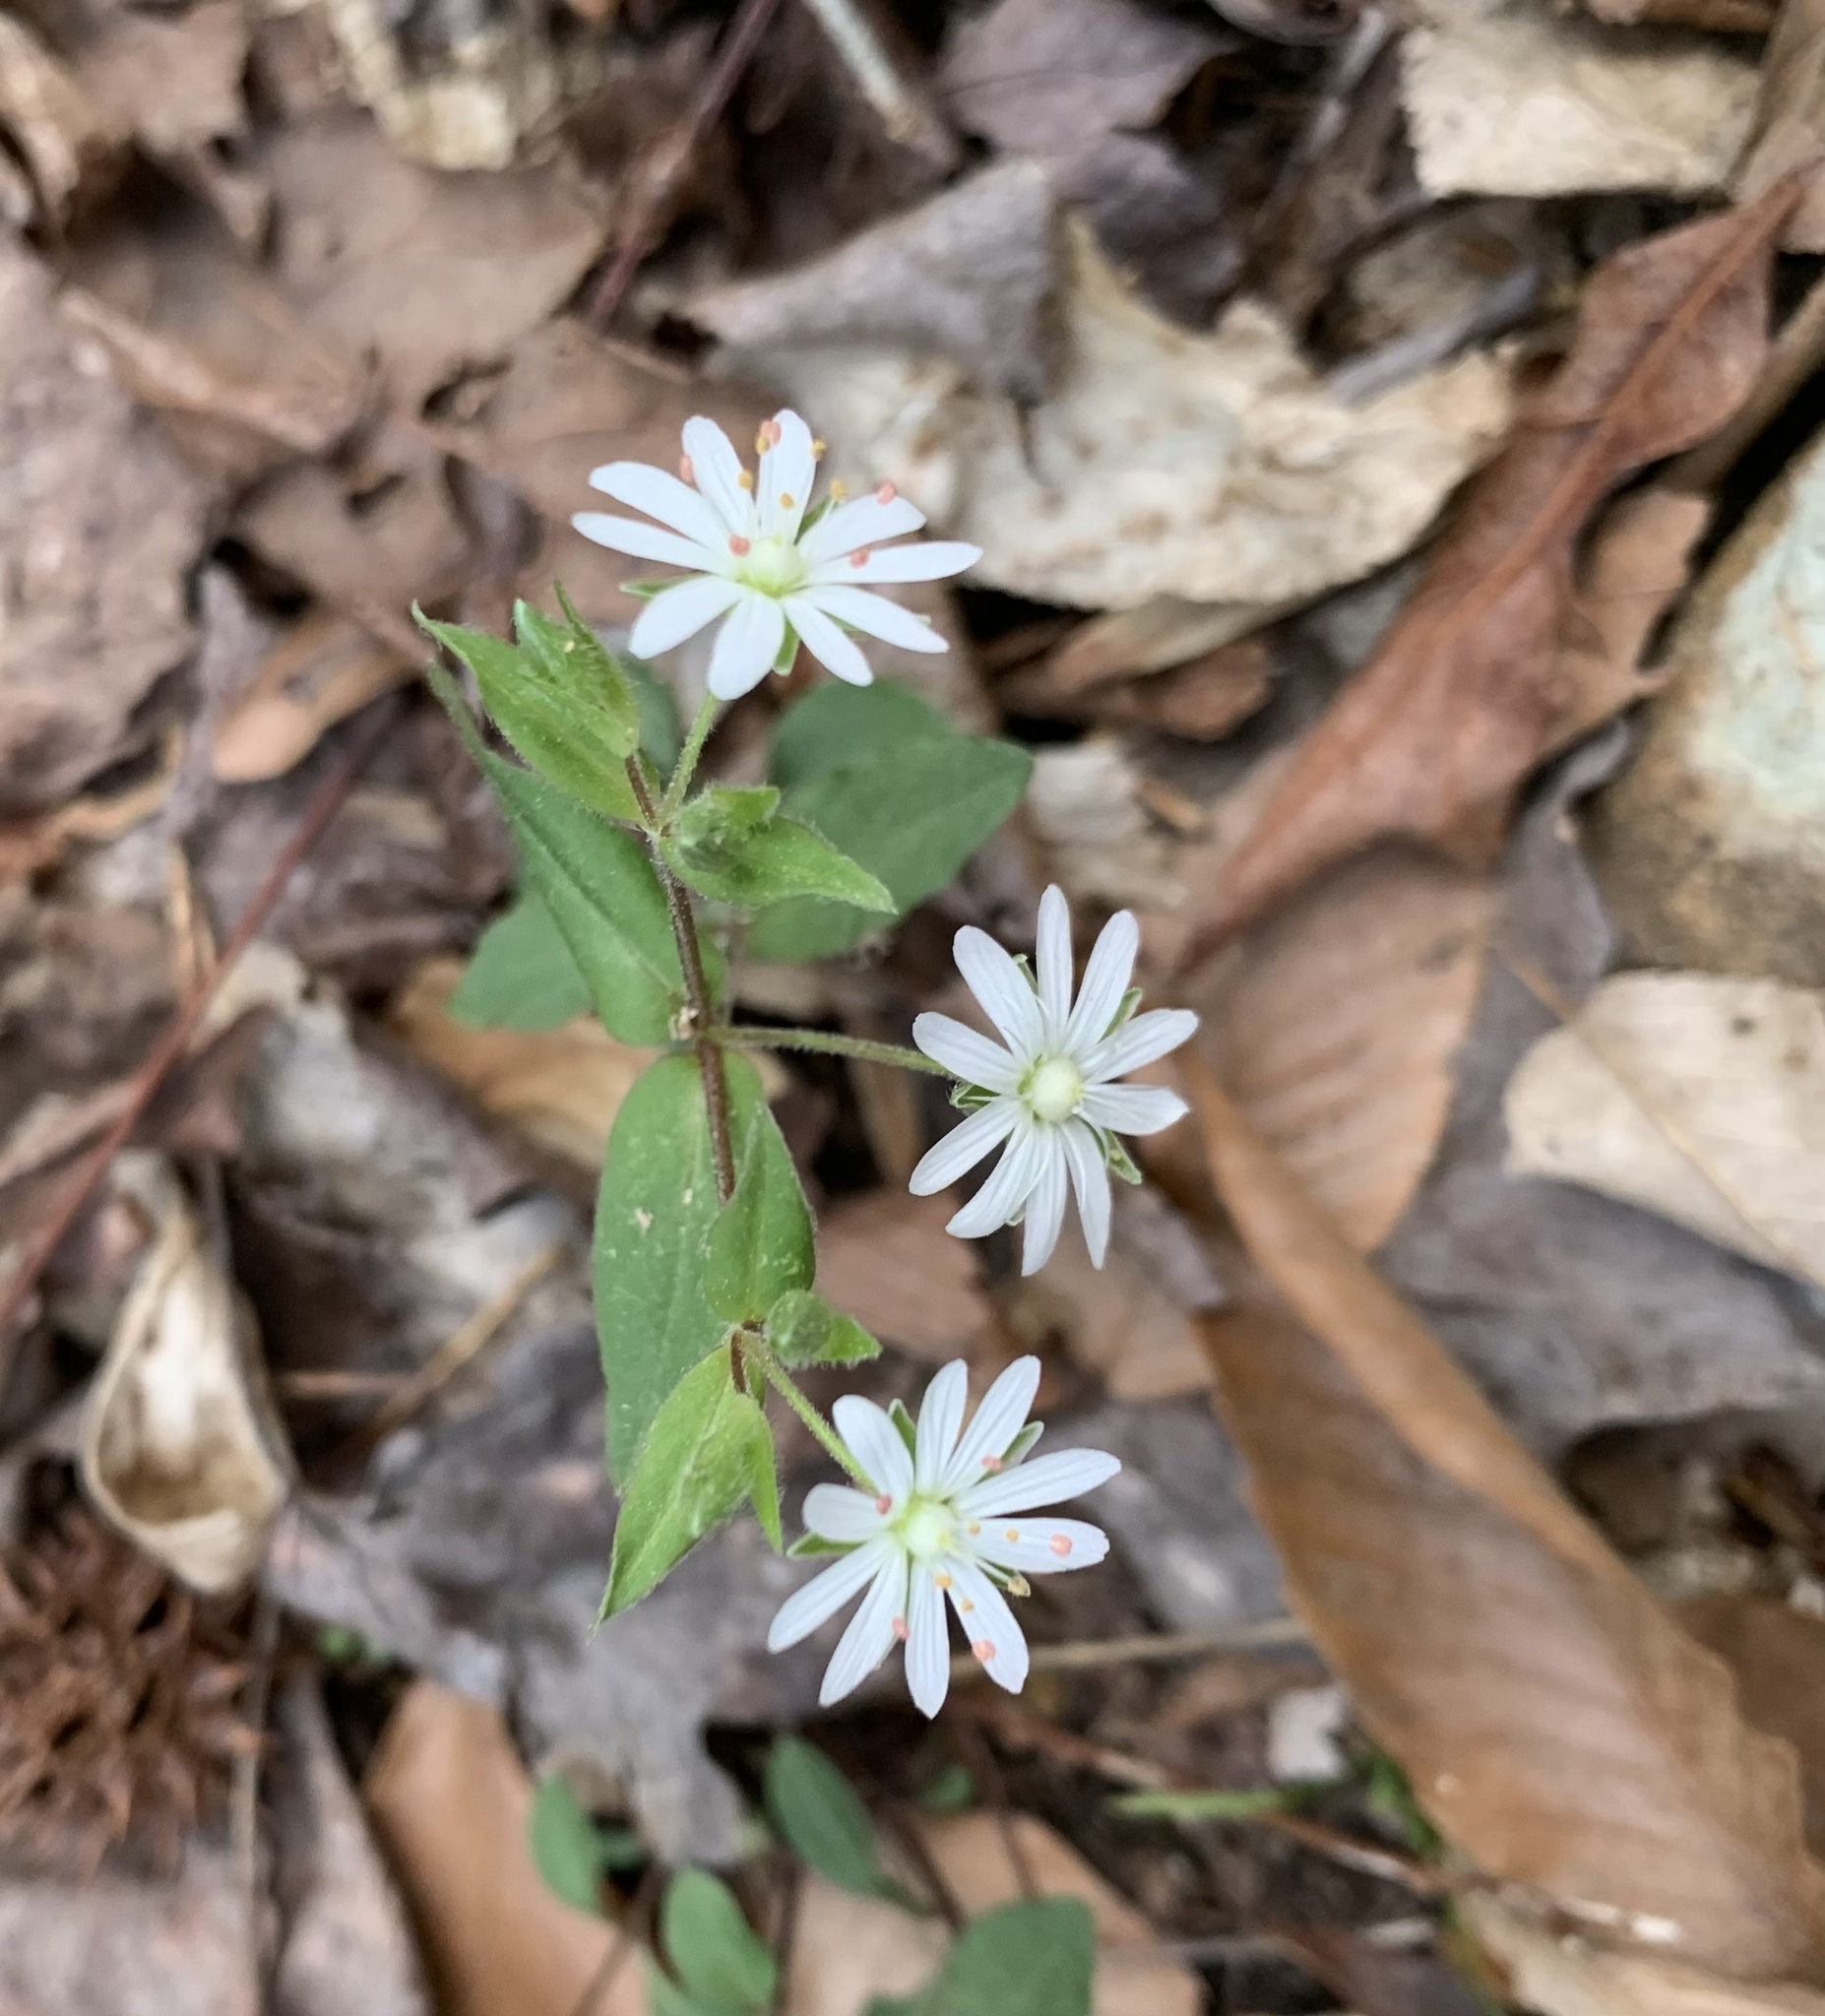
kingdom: Plantae
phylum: Tracheophyta
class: Magnoliopsida
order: Caryophyllales
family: Caryophyllaceae
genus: Stellaria
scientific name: Stellaria pubera
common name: Star chickweed
